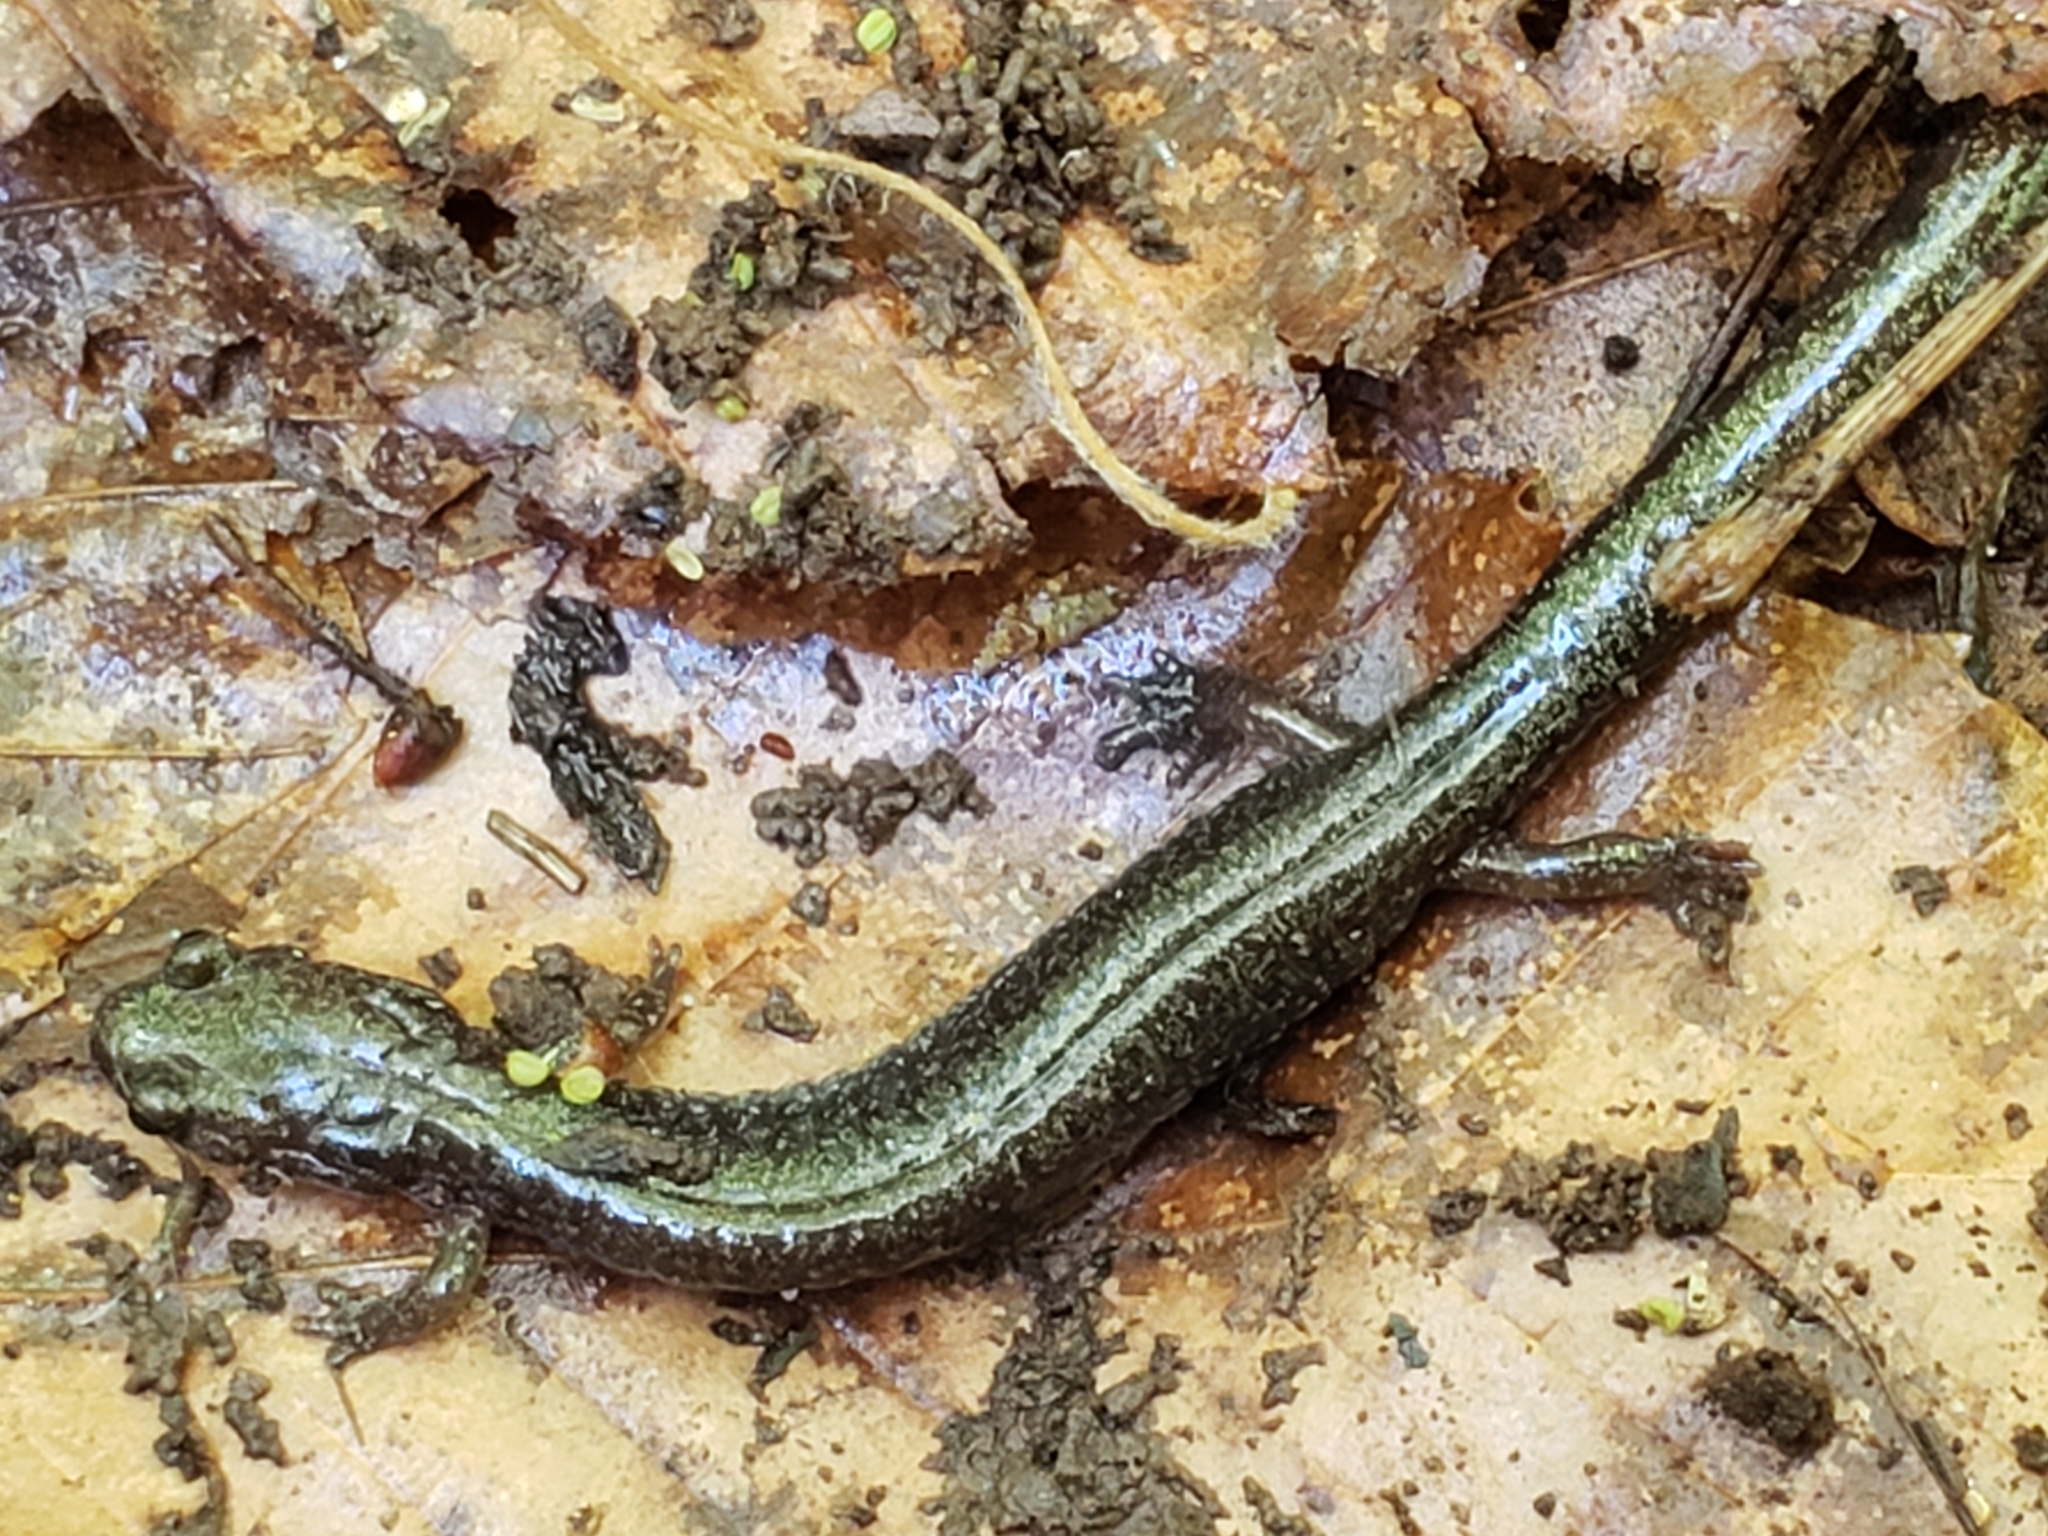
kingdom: Animalia
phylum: Chordata
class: Amphibia
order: Caudata
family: Plethodontidae
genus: Plethodon
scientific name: Plethodon cinereus
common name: Redback salamander
